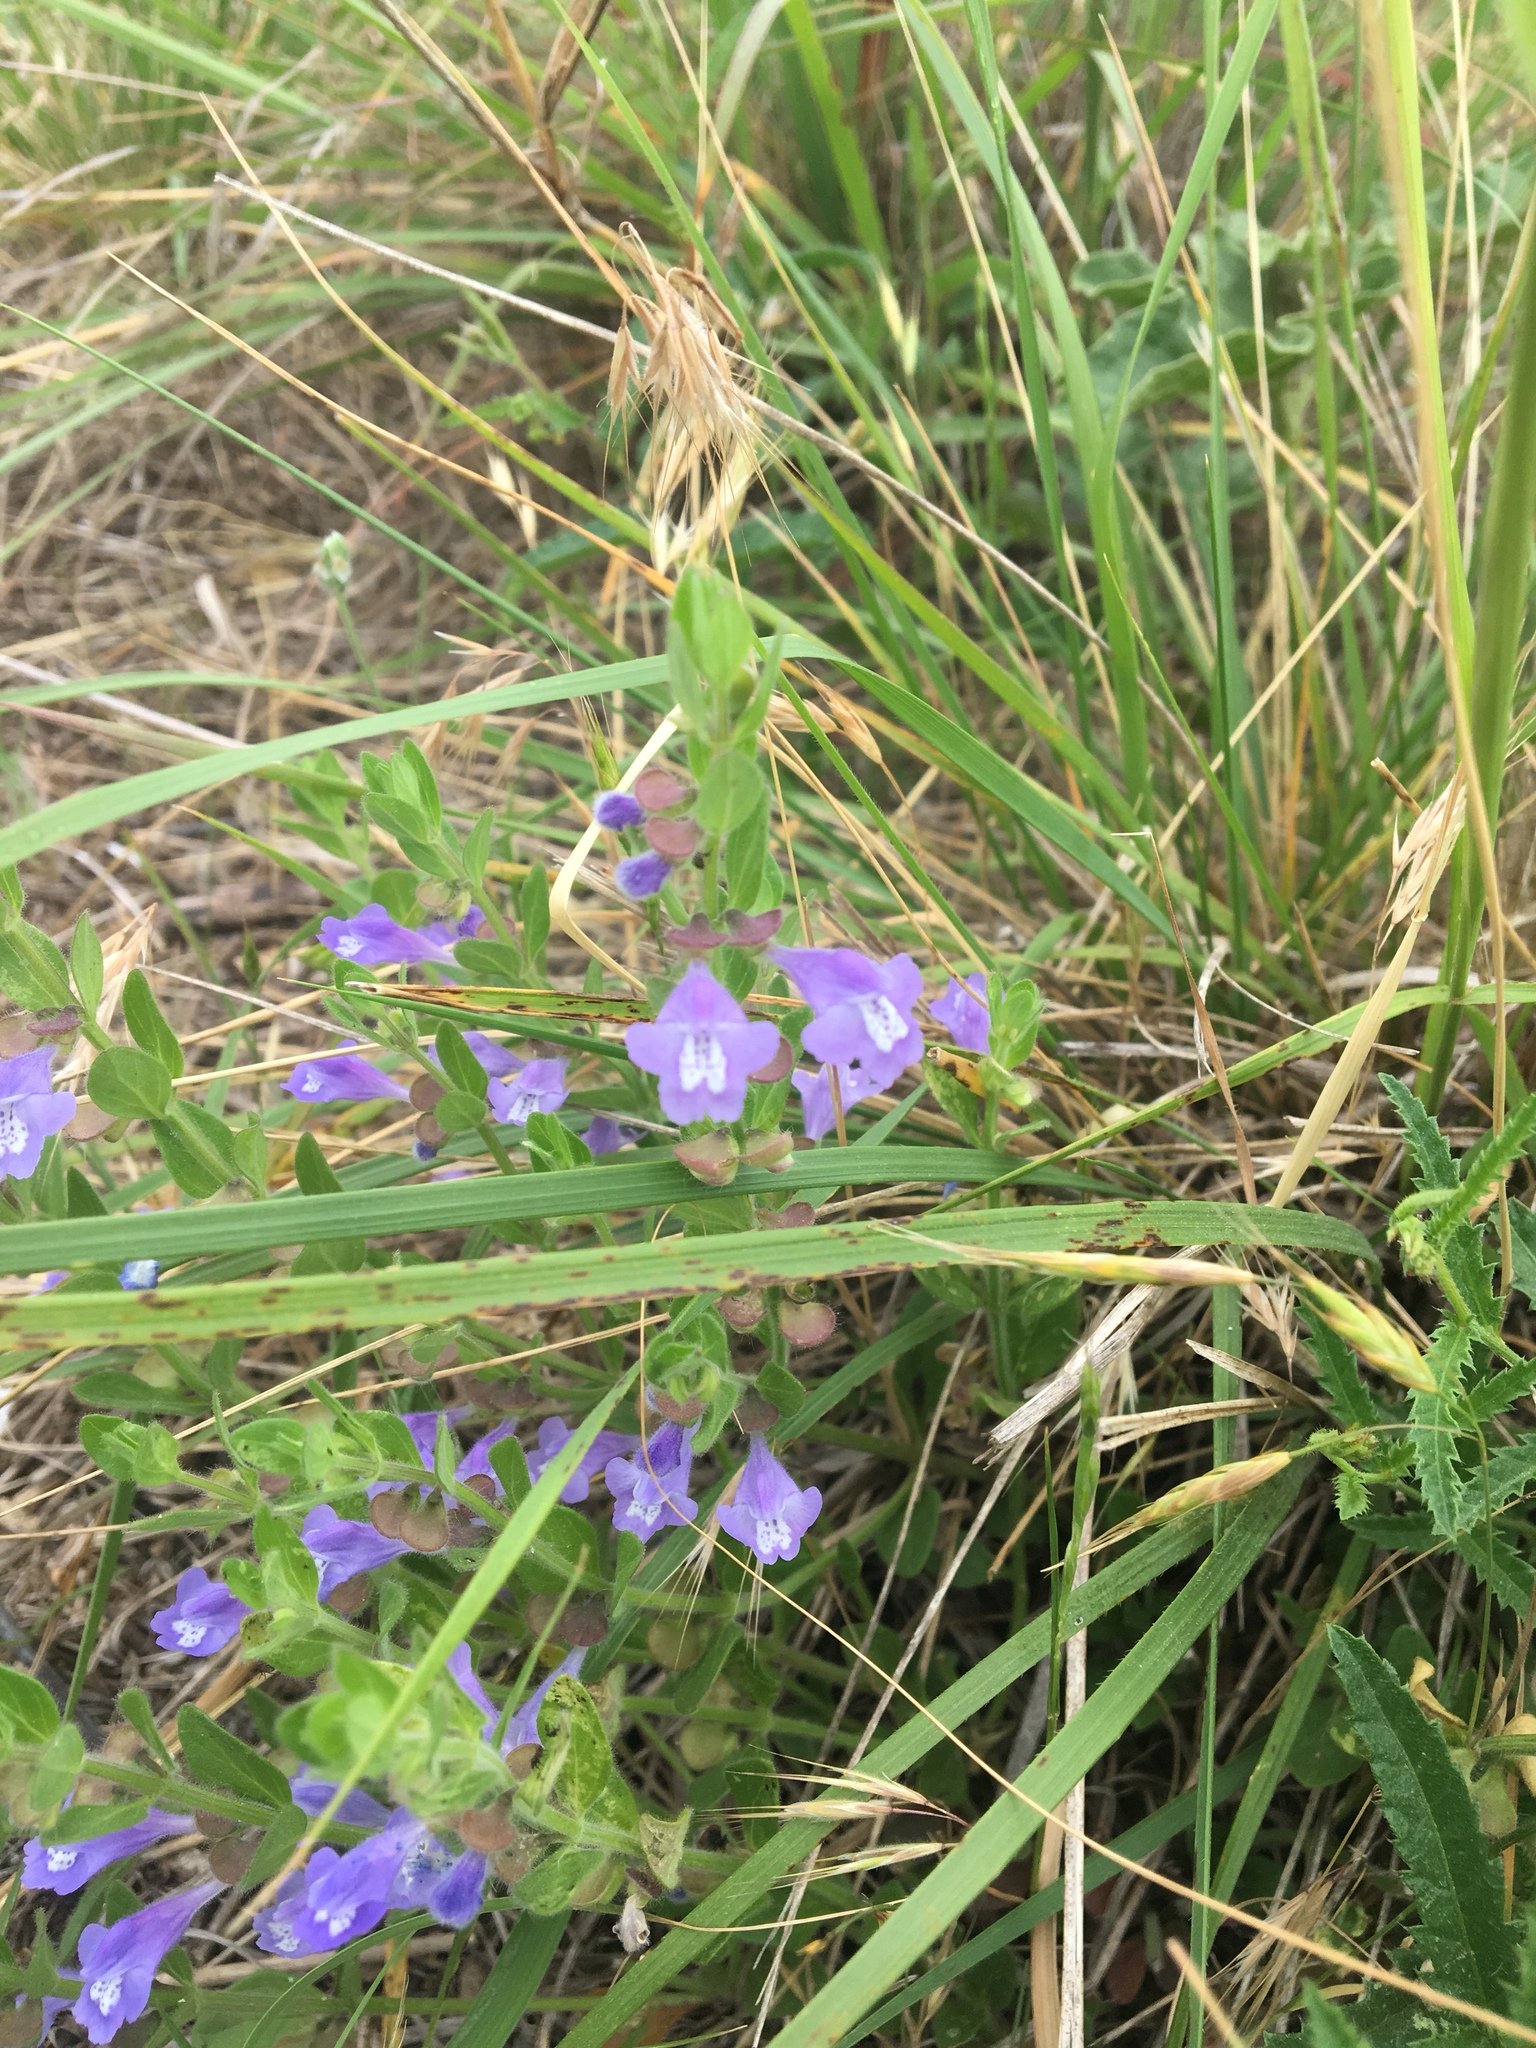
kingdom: Plantae
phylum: Tracheophyta
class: Magnoliopsida
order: Lamiales
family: Lamiaceae
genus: Scutellaria
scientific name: Scutellaria drummondii
